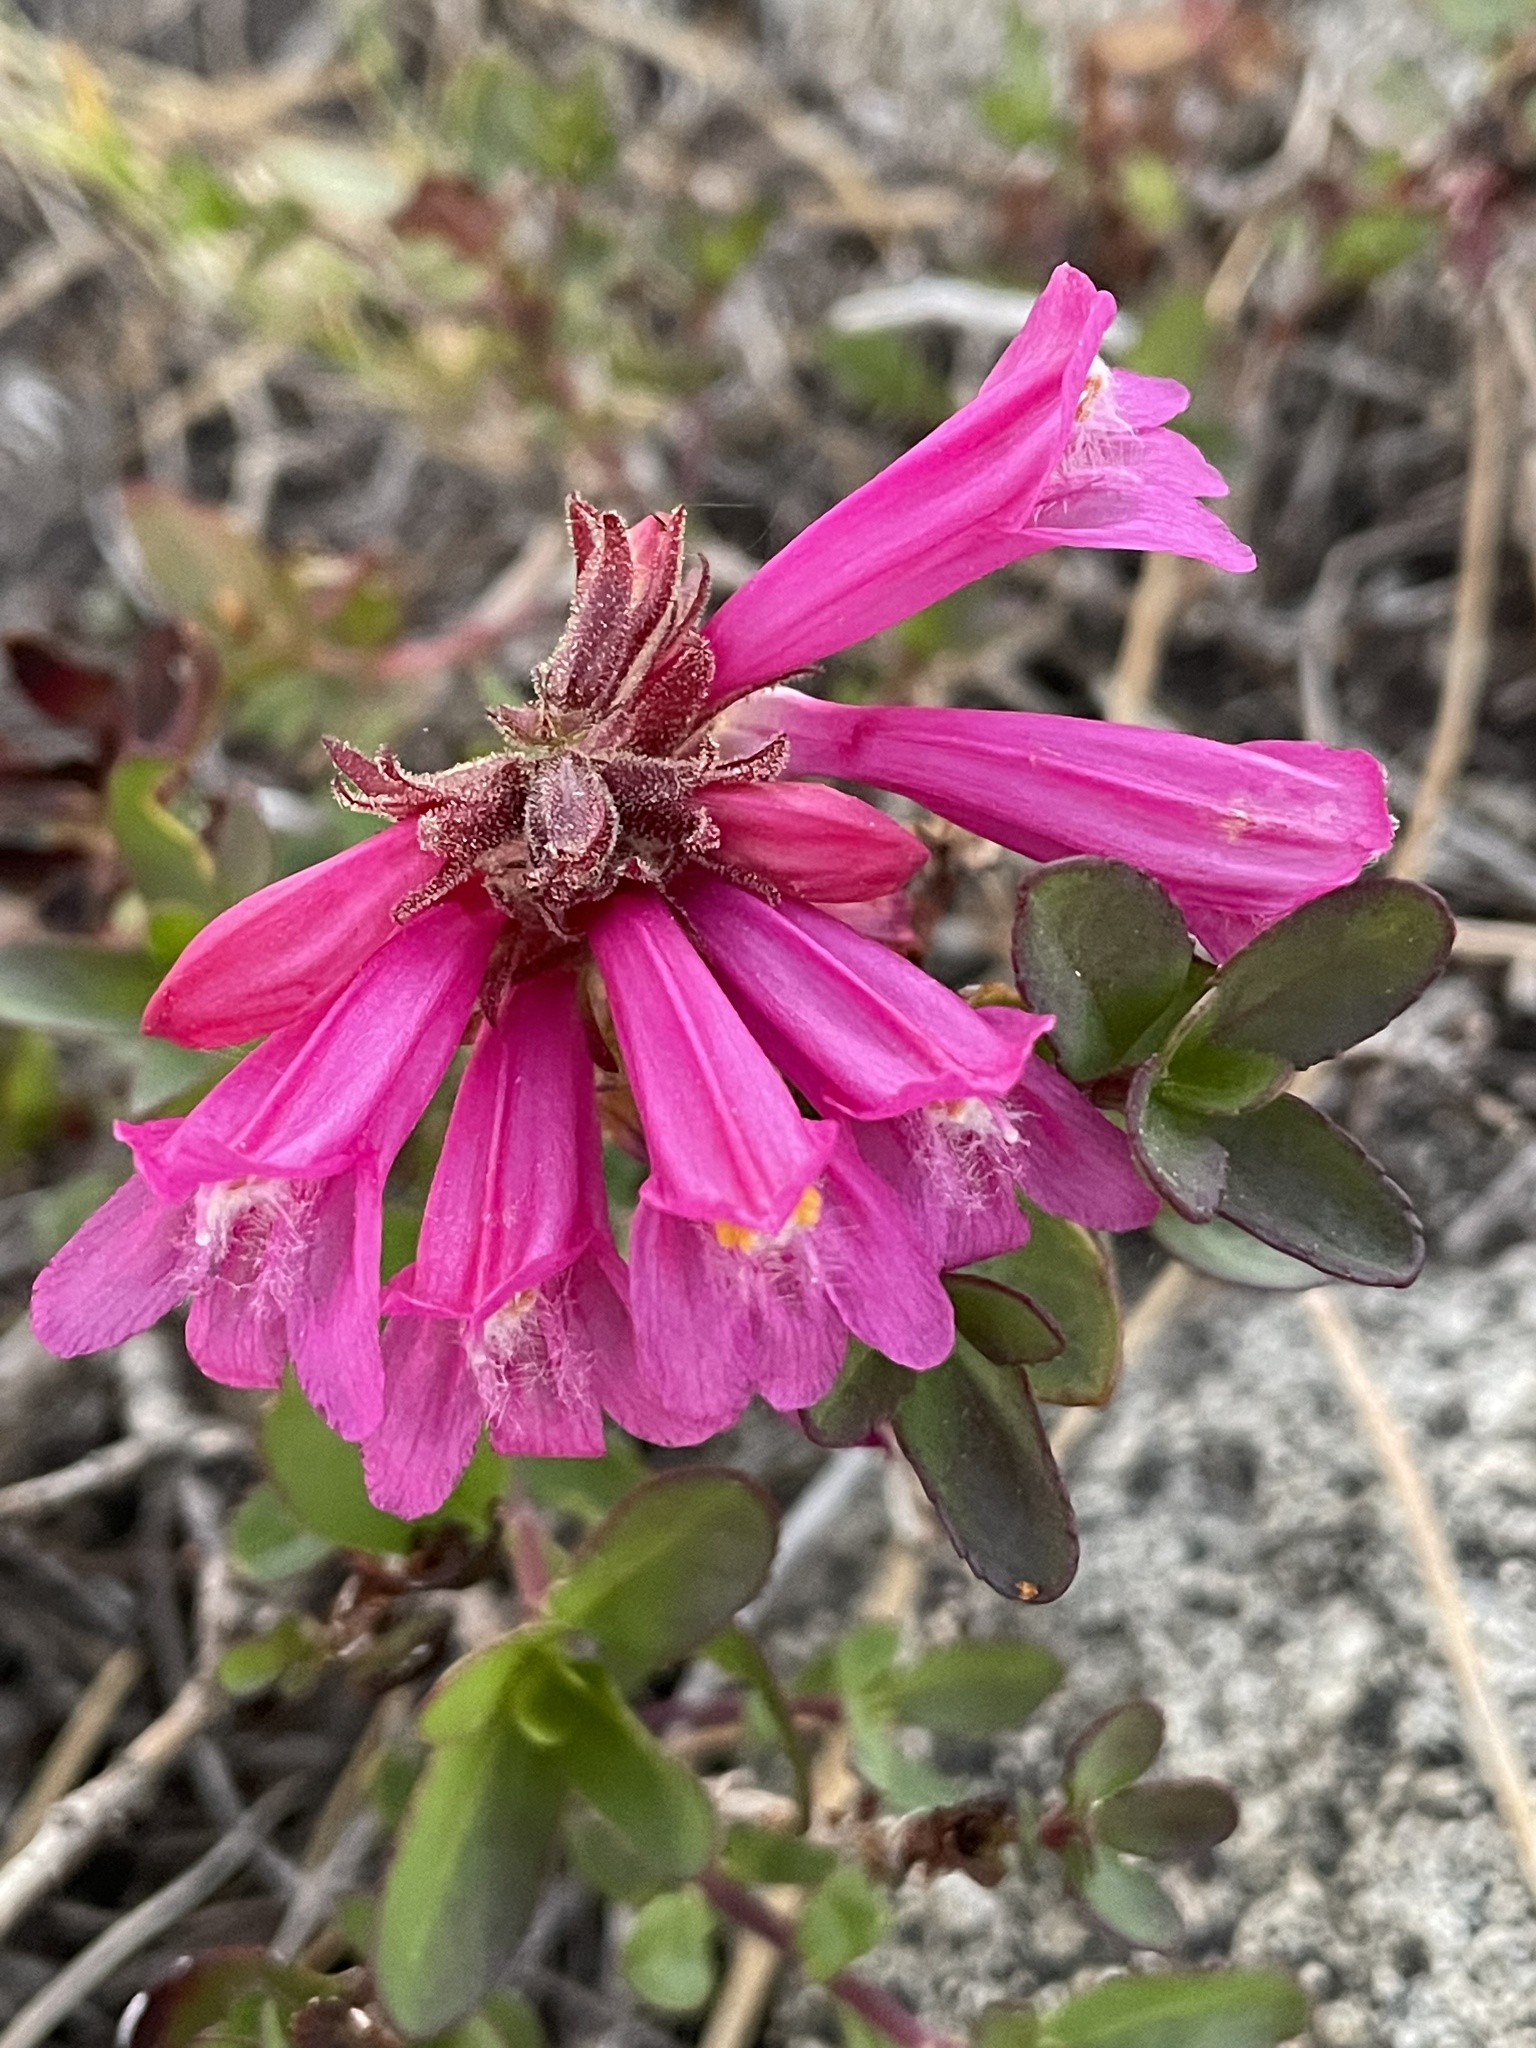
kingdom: Plantae
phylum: Tracheophyta
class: Magnoliopsida
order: Lamiales
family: Plantaginaceae
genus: Penstemon
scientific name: Penstemon newberryi
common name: Mountain-pride
